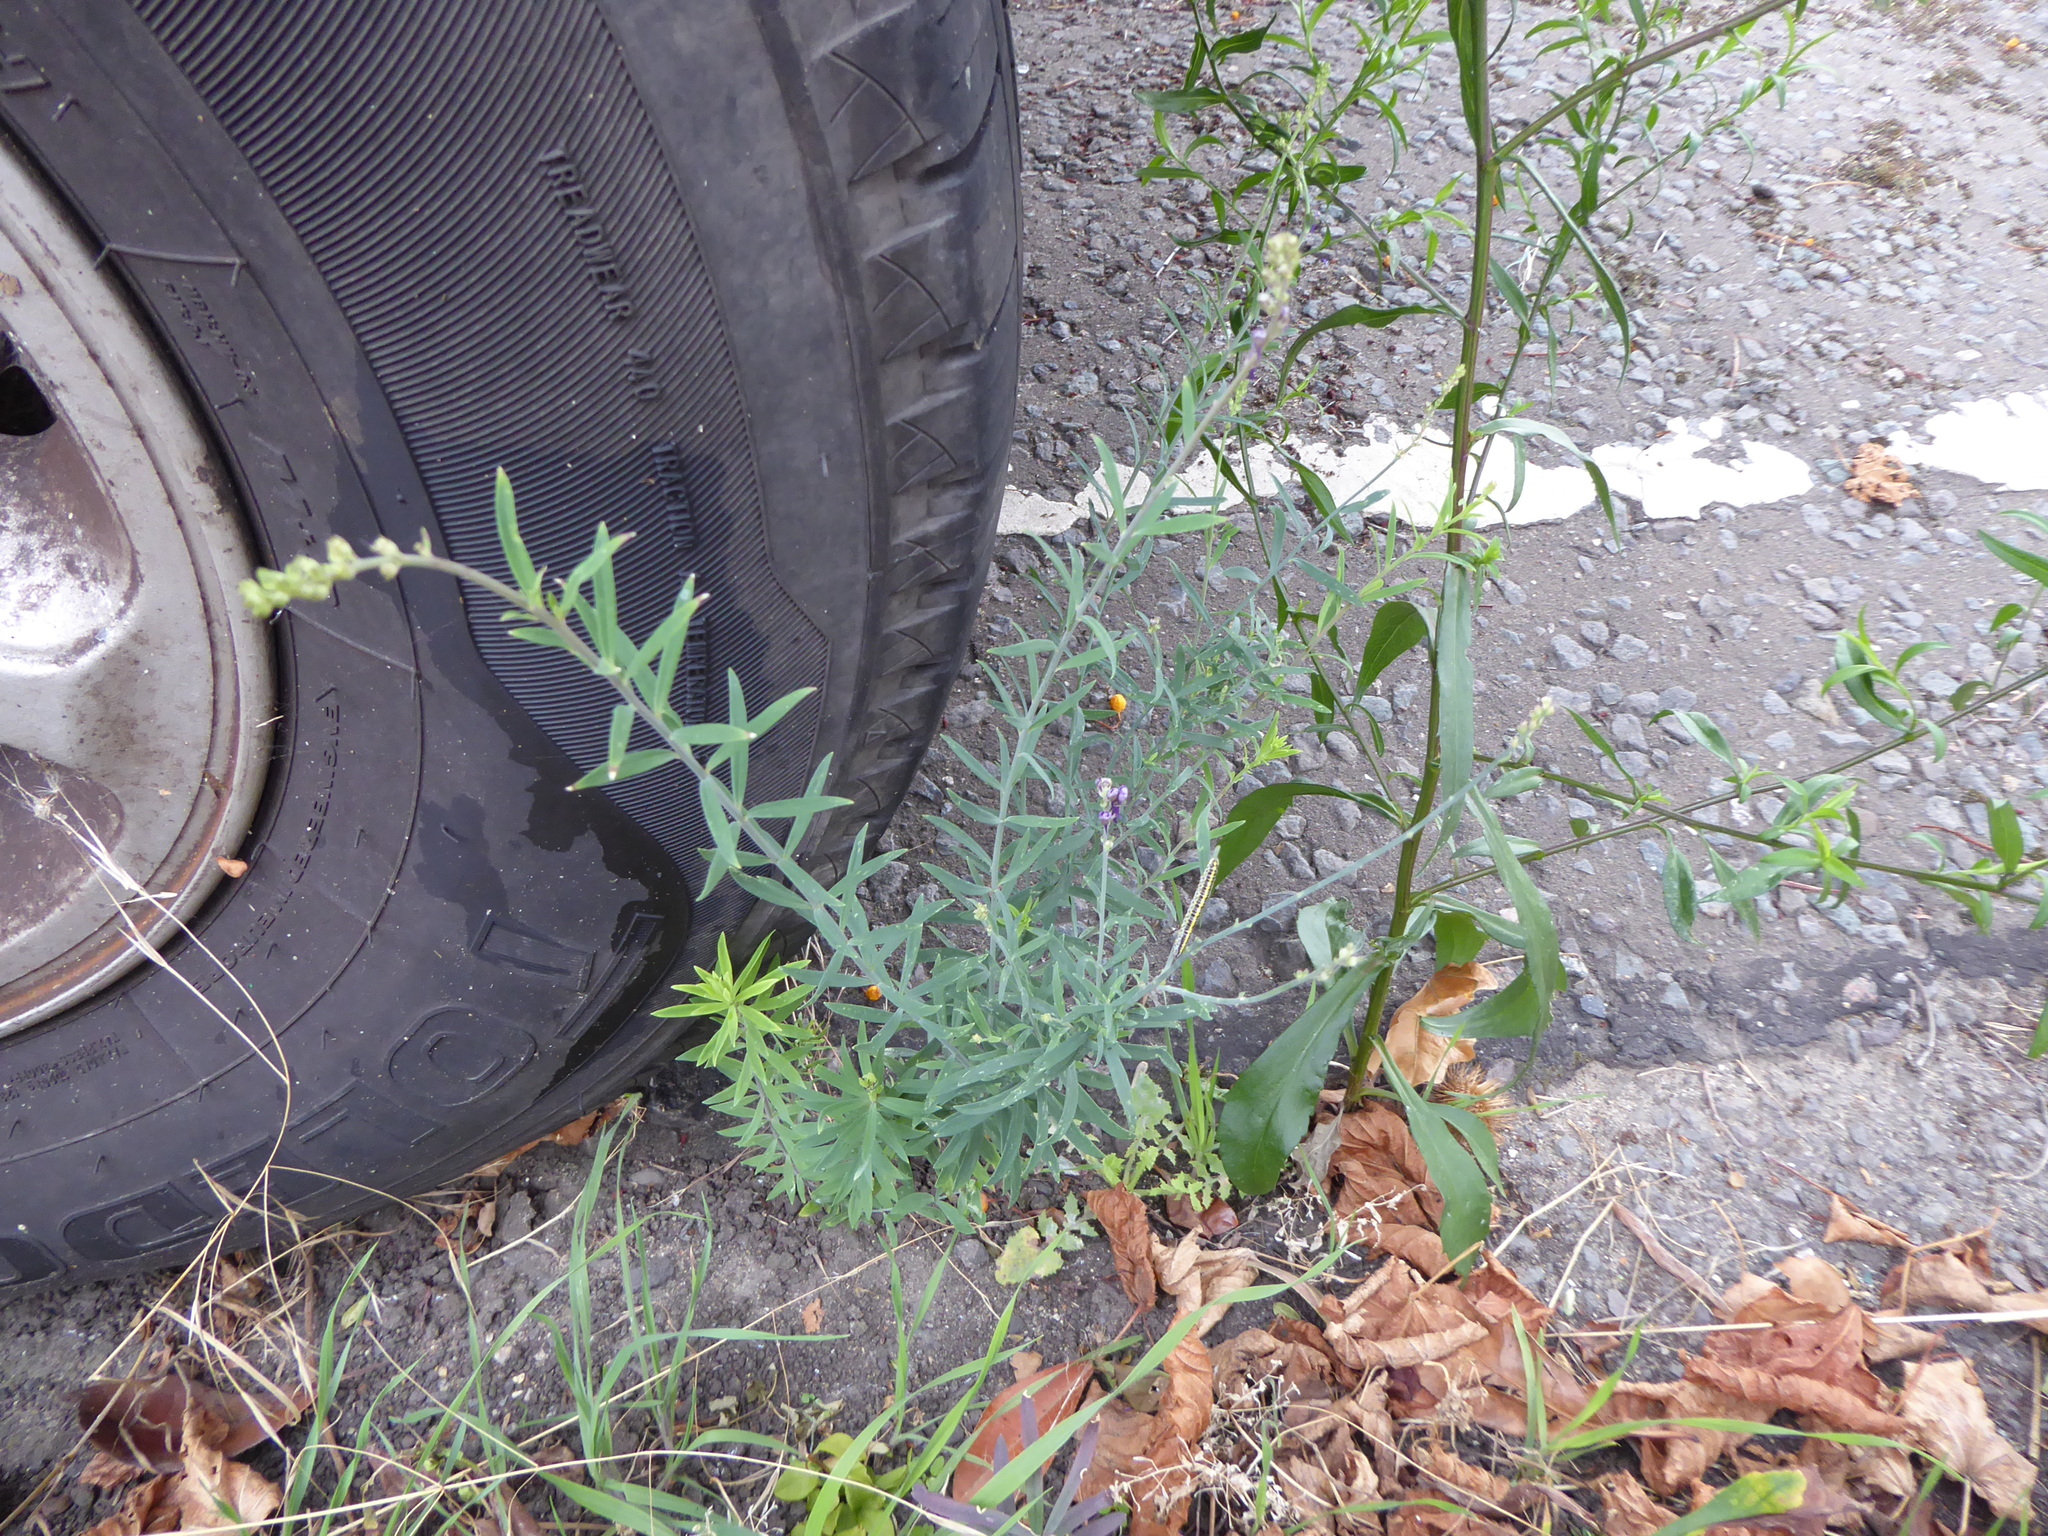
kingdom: Plantae
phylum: Tracheophyta
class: Magnoliopsida
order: Lamiales
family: Plantaginaceae
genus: Linaria
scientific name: Linaria purpurea
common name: Purple toadflax
